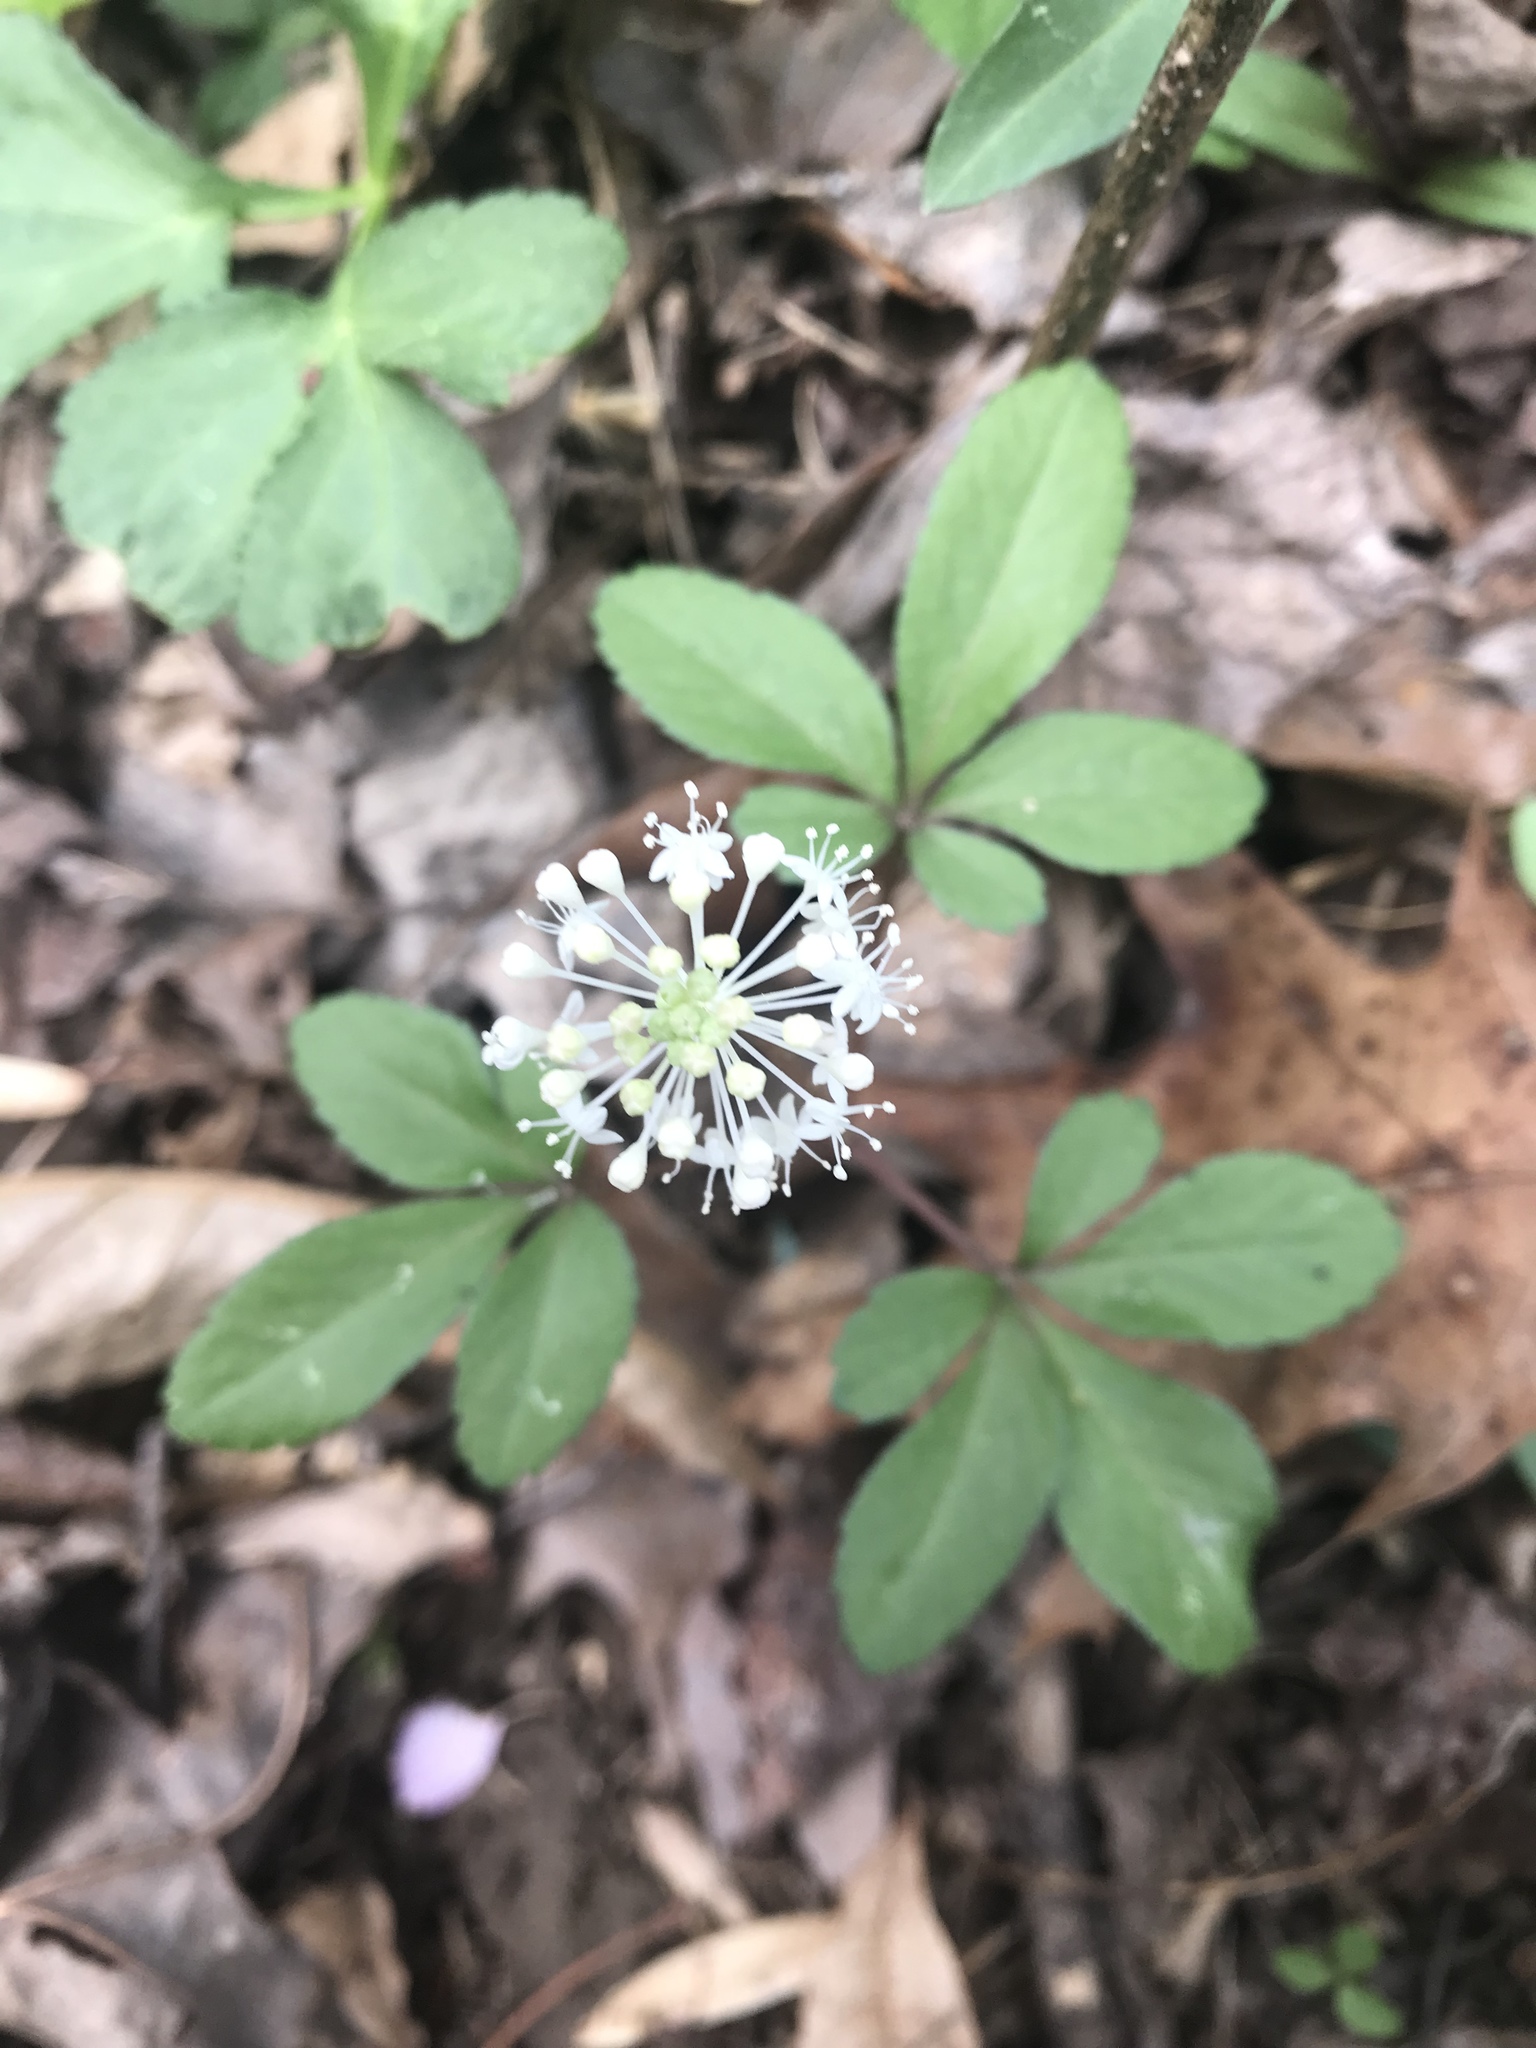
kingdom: Plantae
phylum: Tracheophyta
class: Magnoliopsida
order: Apiales
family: Araliaceae
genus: Panax
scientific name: Panax trifolius
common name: Dwarf ginseng
